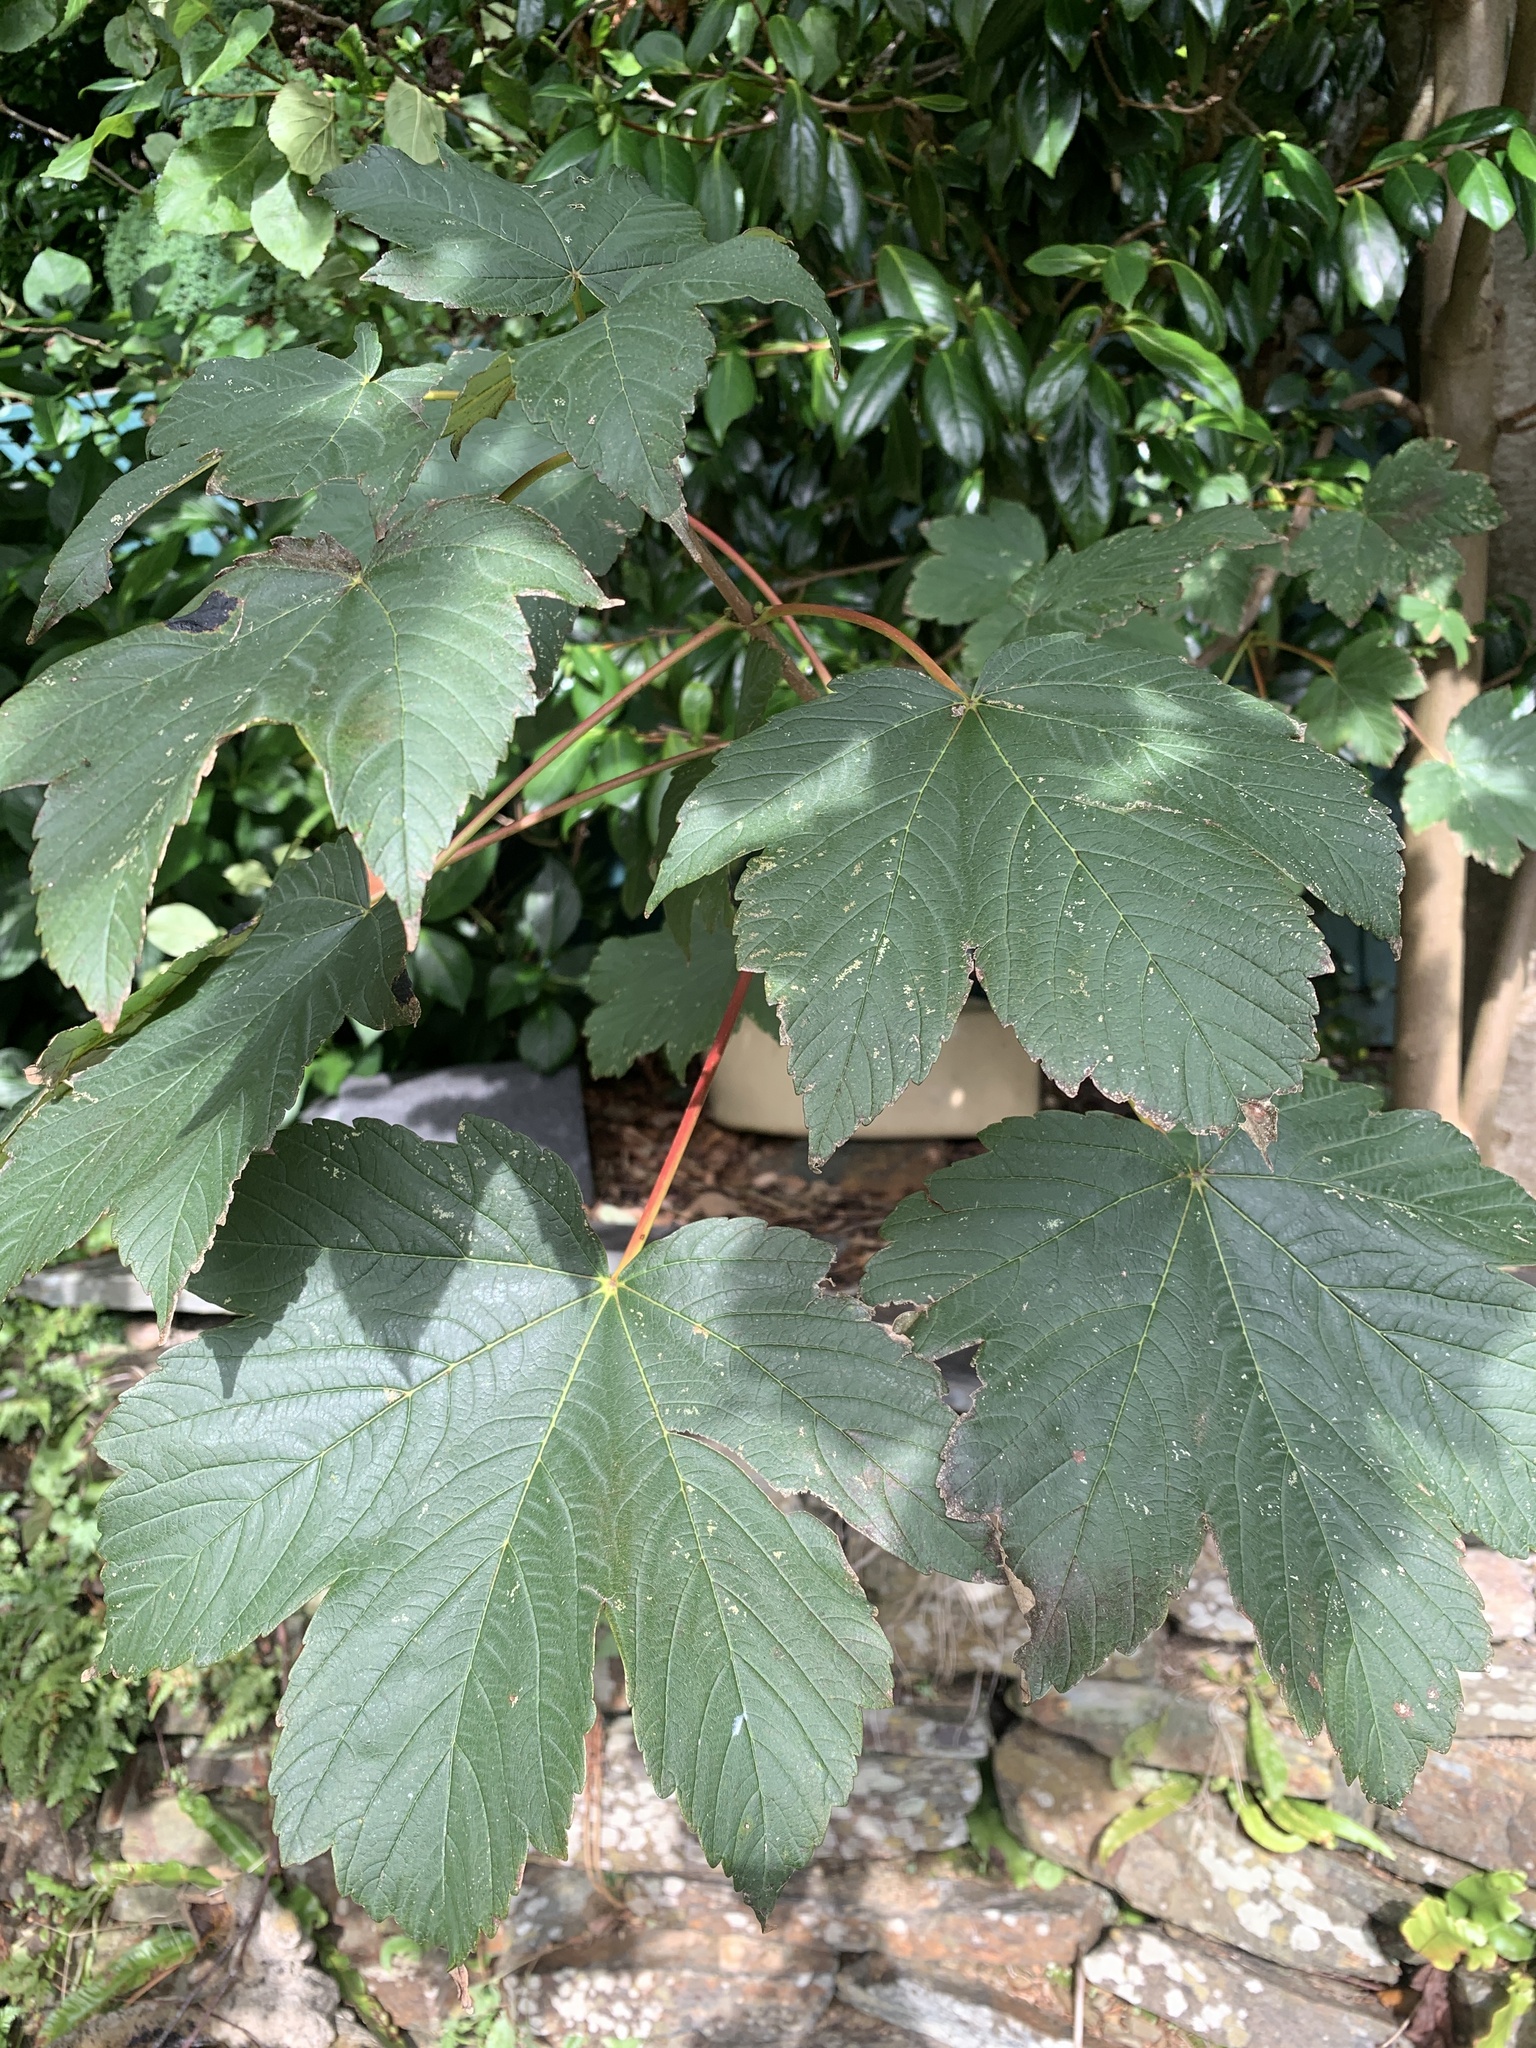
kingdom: Plantae
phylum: Tracheophyta
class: Magnoliopsida
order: Sapindales
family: Sapindaceae
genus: Acer
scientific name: Acer pseudoplatanus
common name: Sycamore
